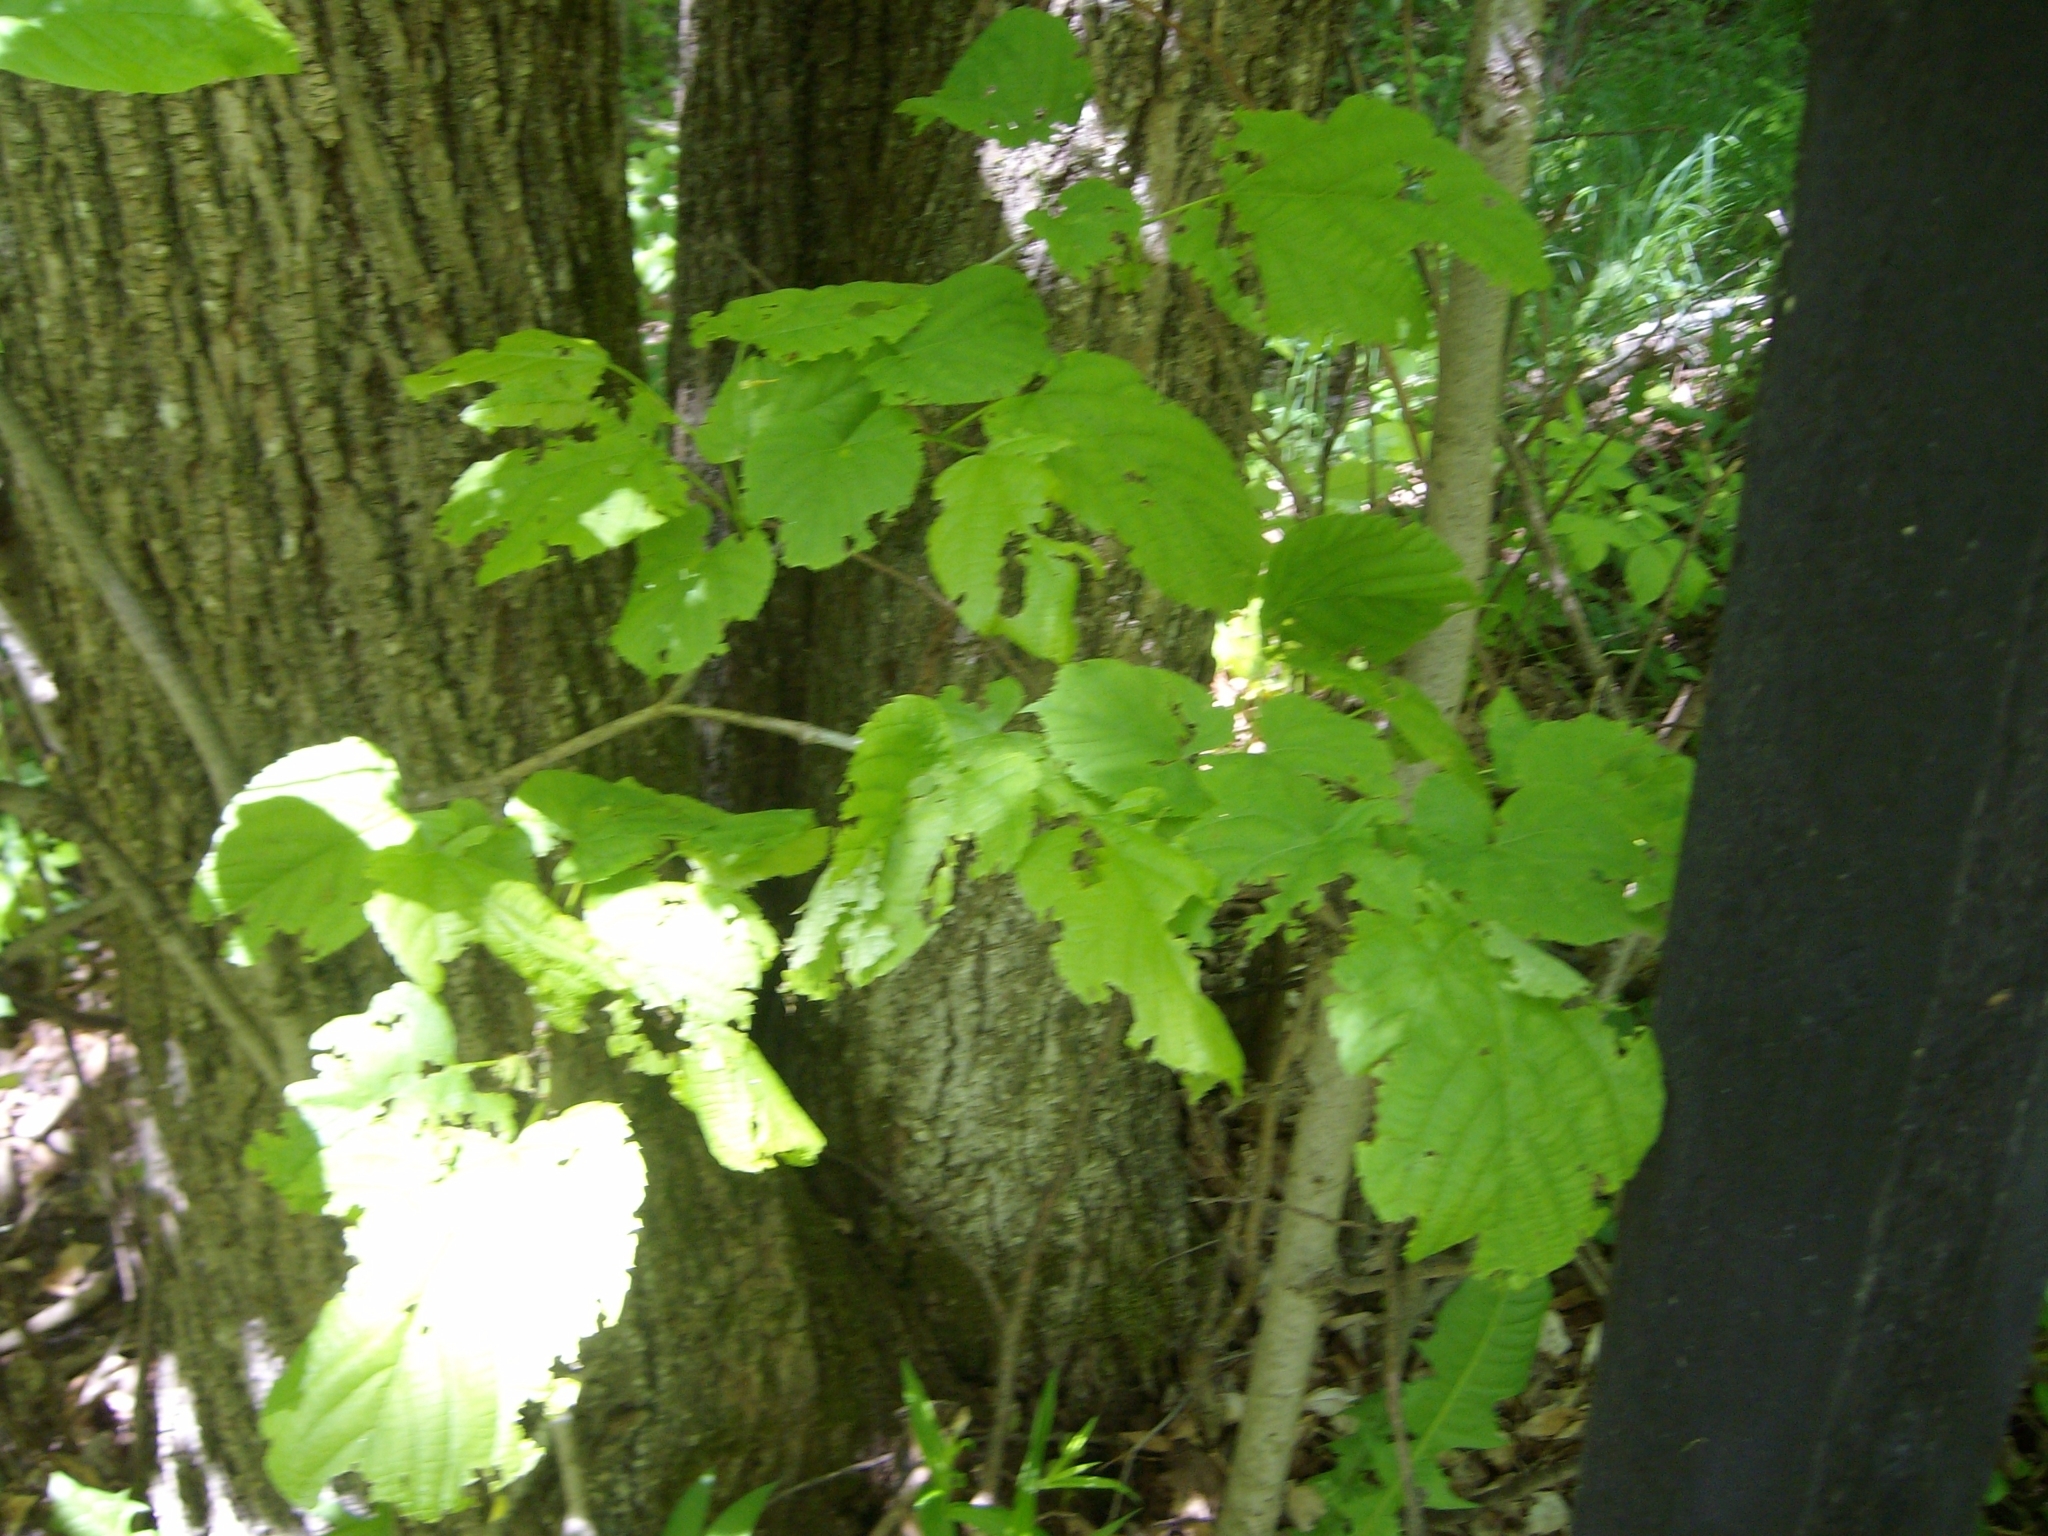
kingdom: Plantae
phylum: Tracheophyta
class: Magnoliopsida
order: Malvales
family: Malvaceae
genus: Tilia
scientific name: Tilia americana
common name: Basswood
